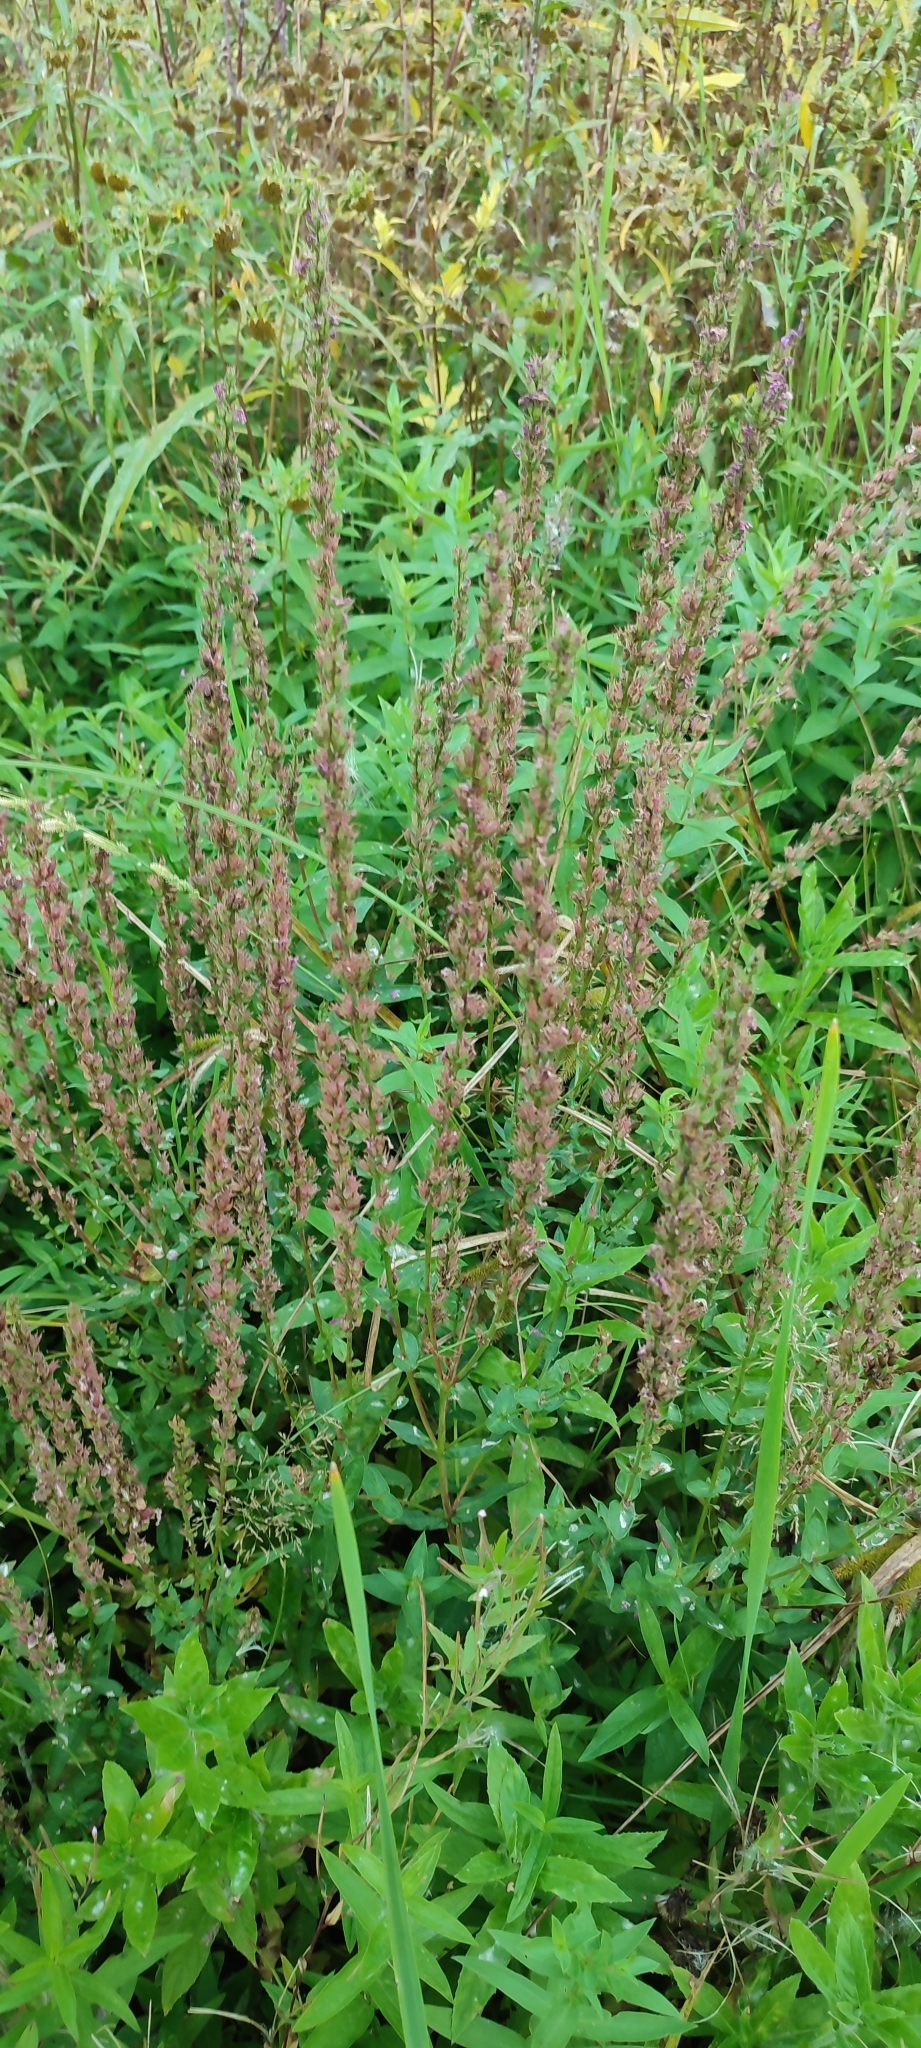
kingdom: Plantae
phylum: Tracheophyta
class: Magnoliopsida
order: Myrtales
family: Lythraceae
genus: Lythrum
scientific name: Lythrum salicaria
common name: Purple loosestrife
